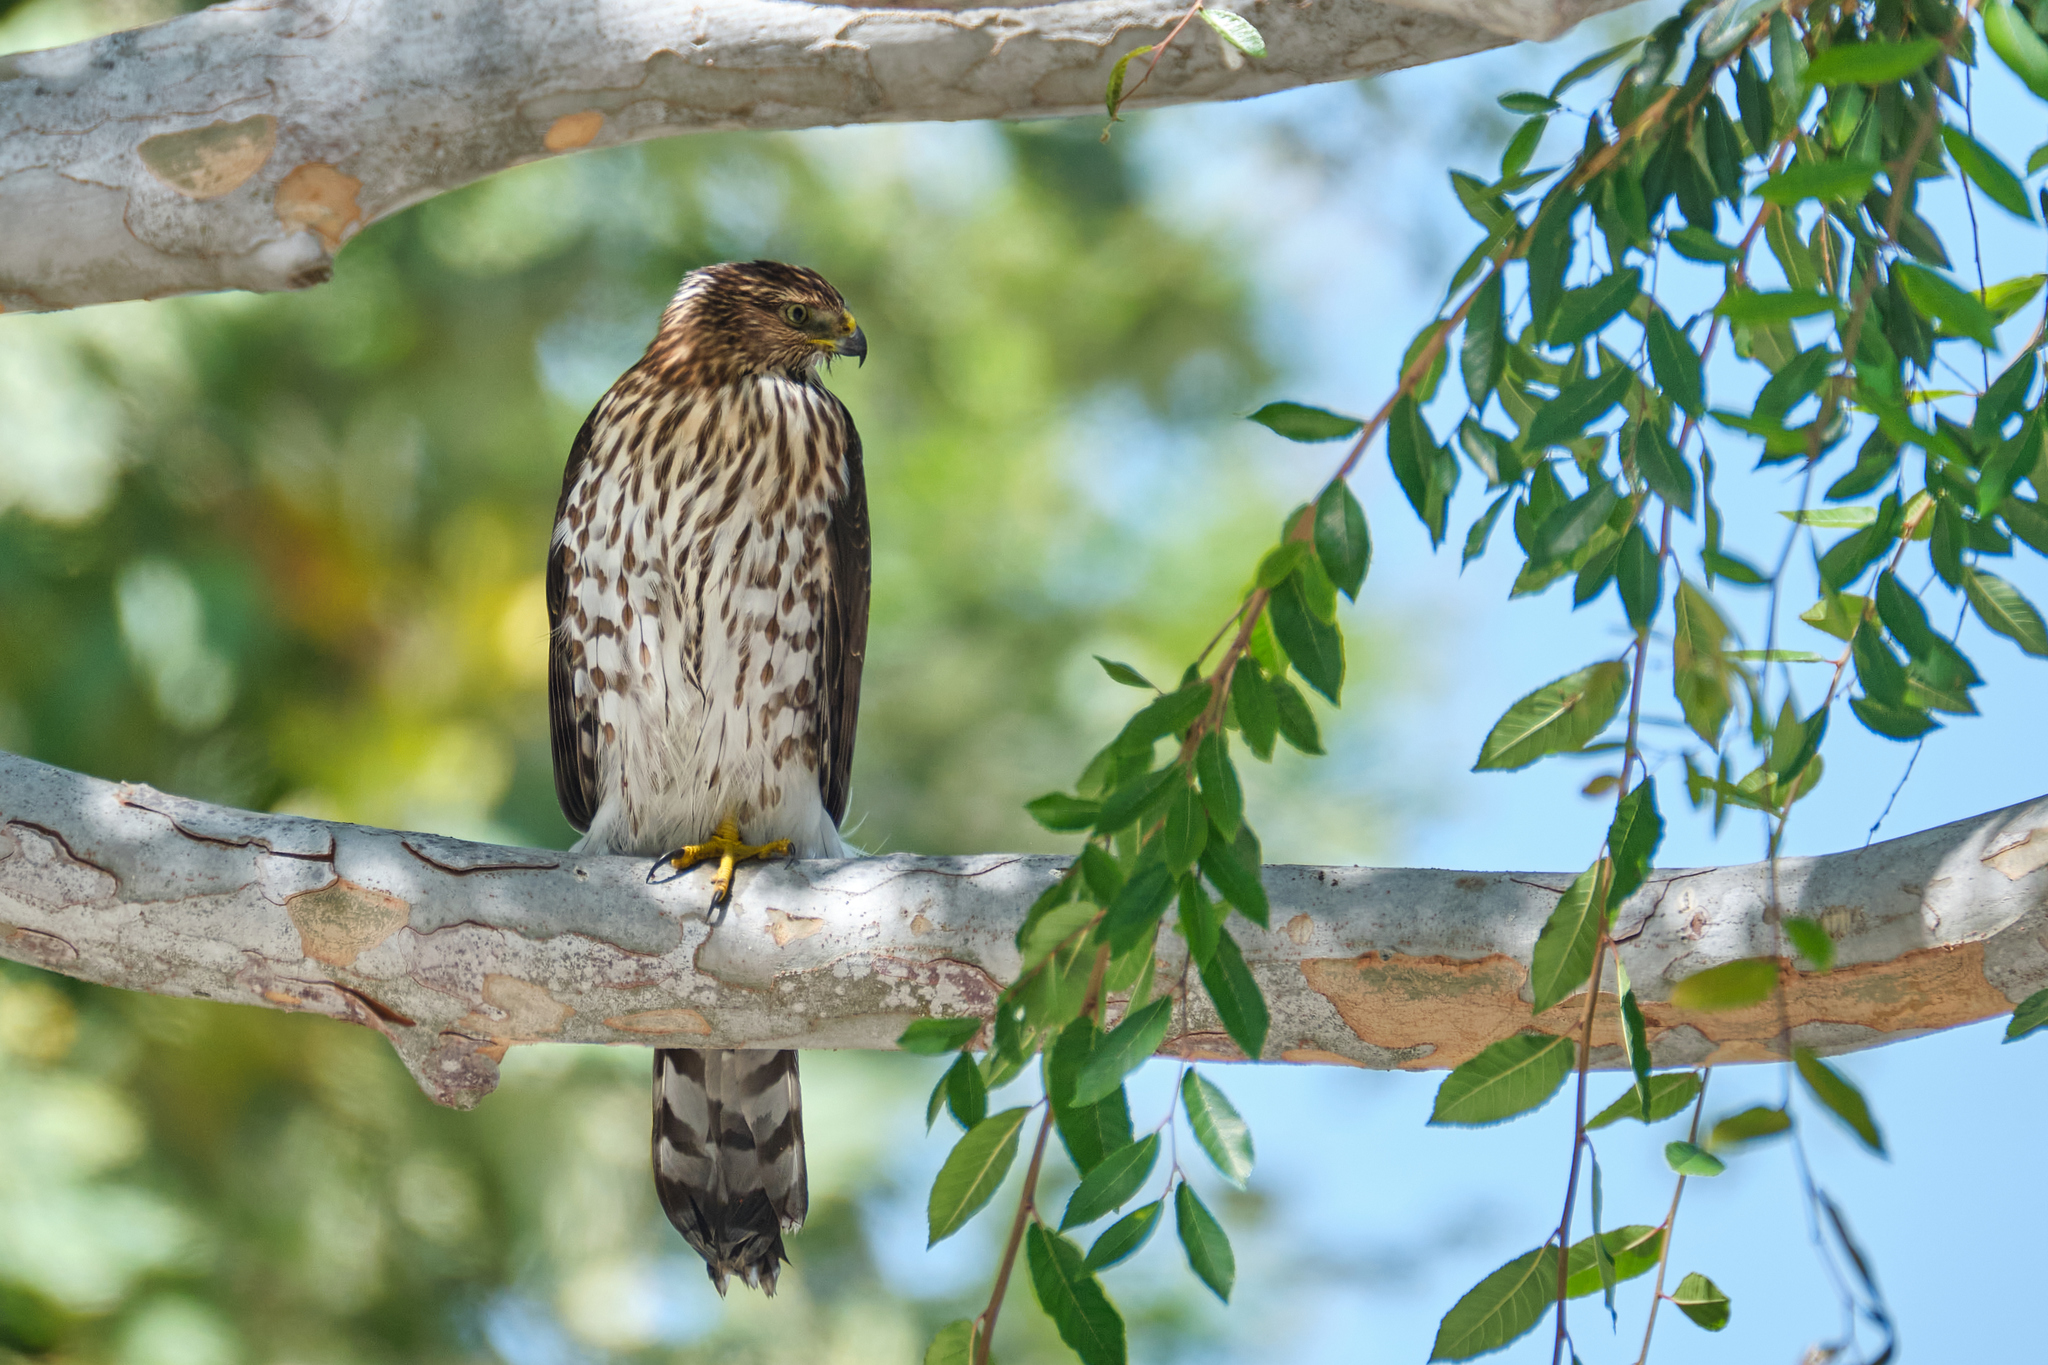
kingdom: Animalia
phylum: Chordata
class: Aves
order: Accipitriformes
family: Accipitridae
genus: Accipiter
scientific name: Accipiter cooperii
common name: Cooper's hawk
